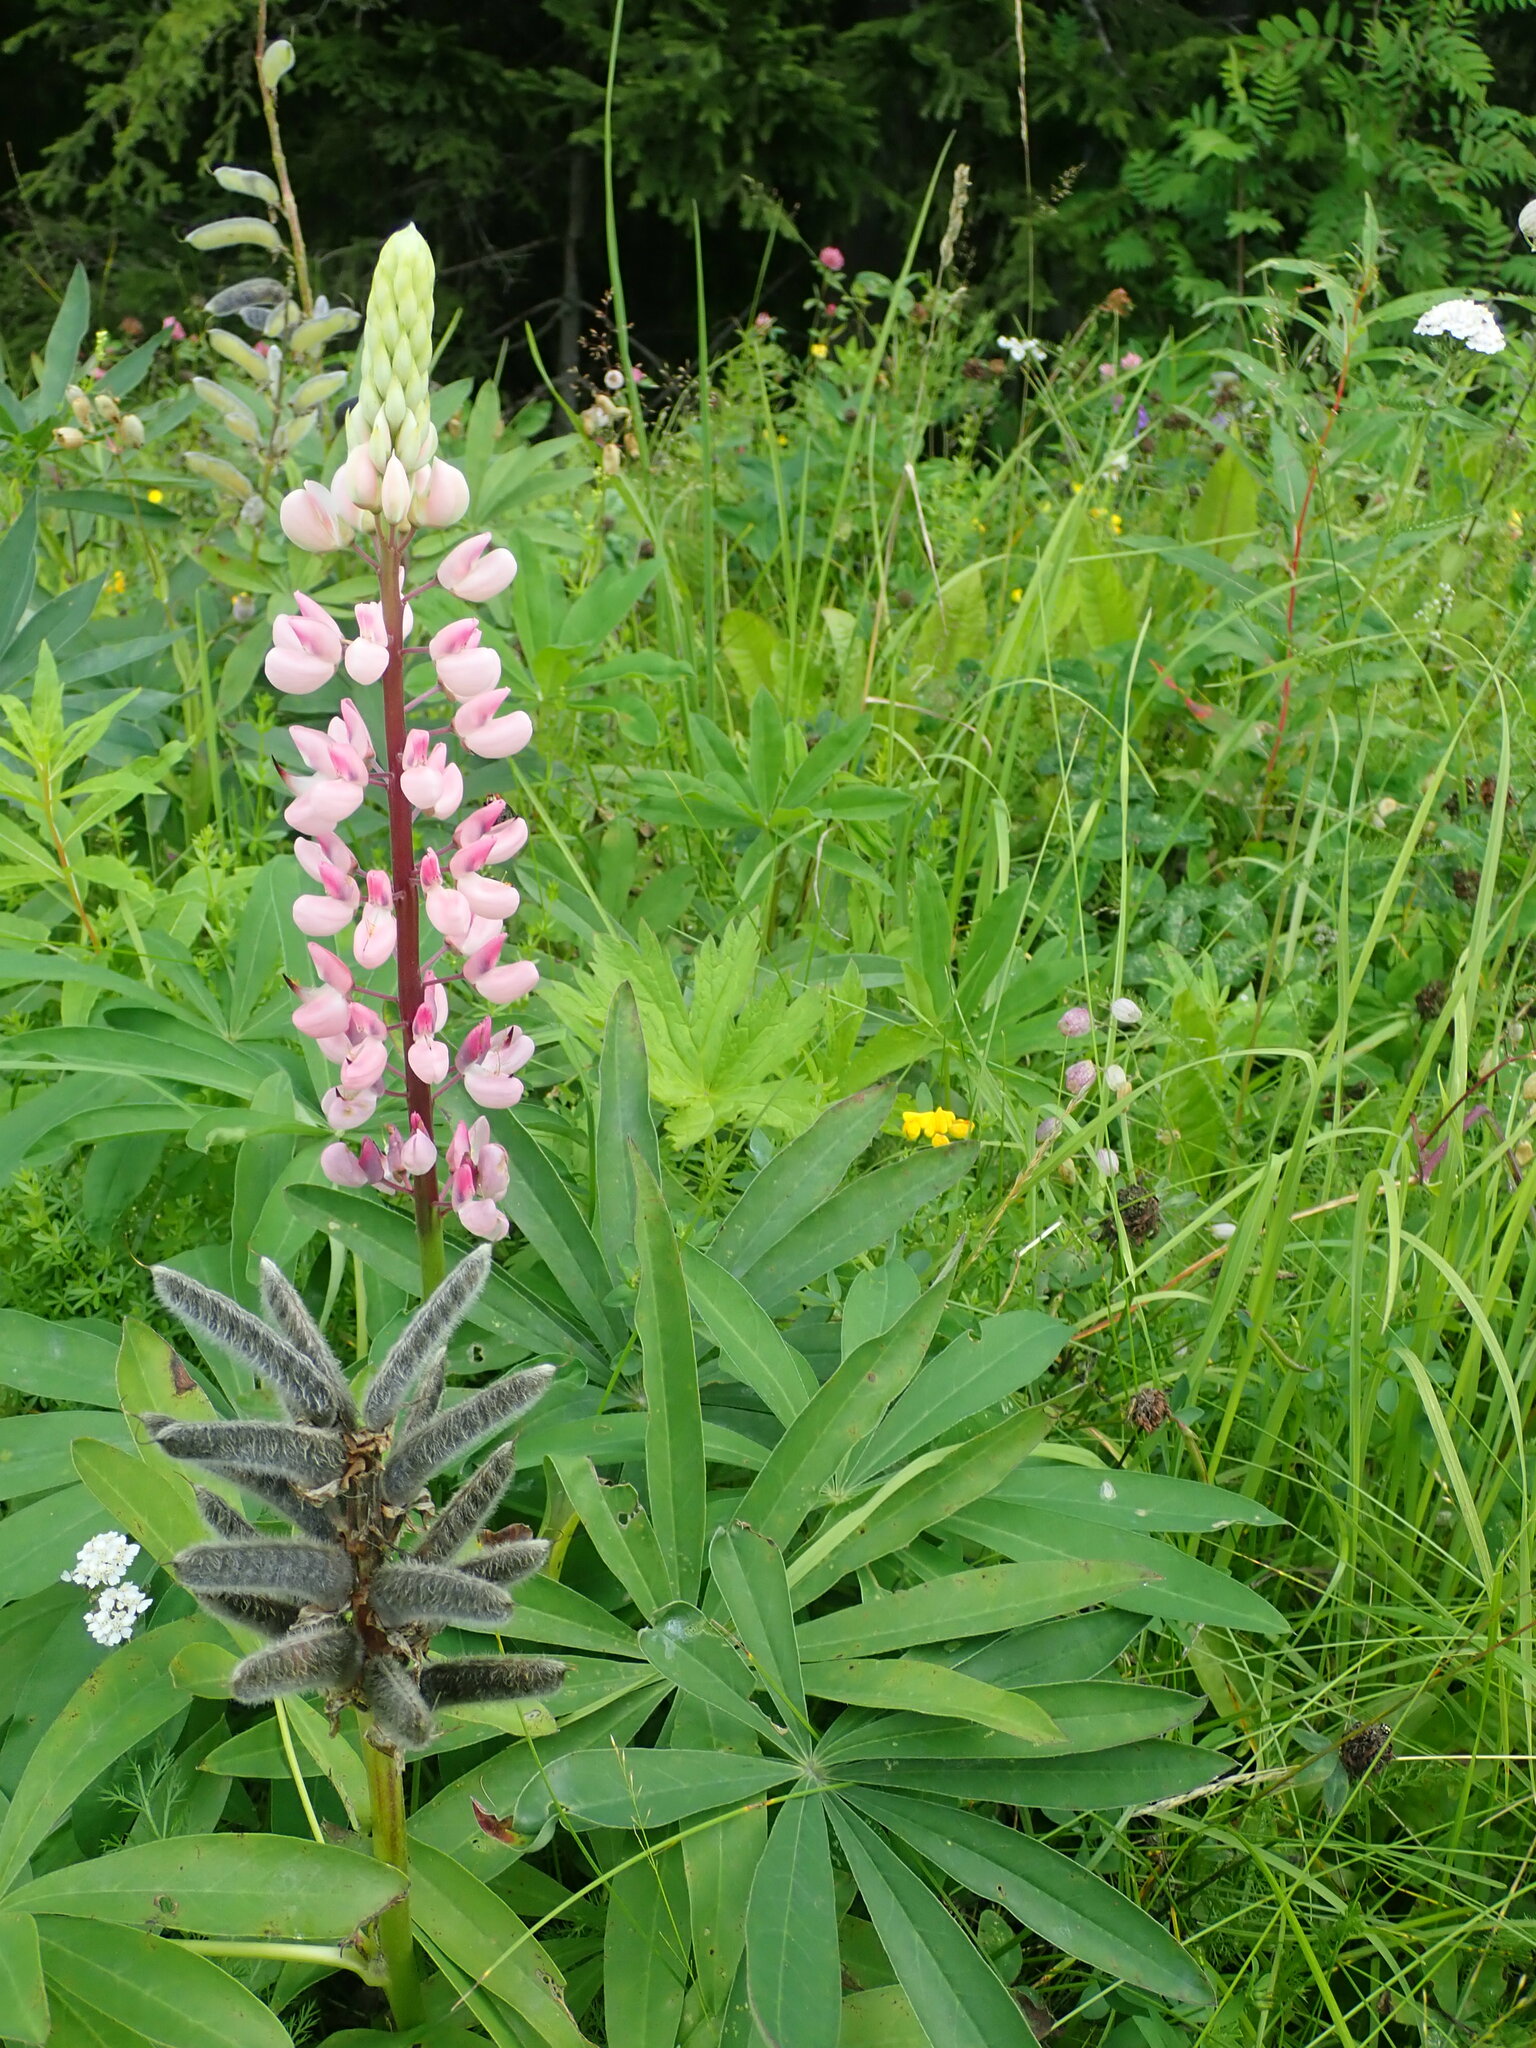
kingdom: Plantae
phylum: Tracheophyta
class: Magnoliopsida
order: Fabales
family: Fabaceae
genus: Lupinus
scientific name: Lupinus polyphyllus
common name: Garden lupin
